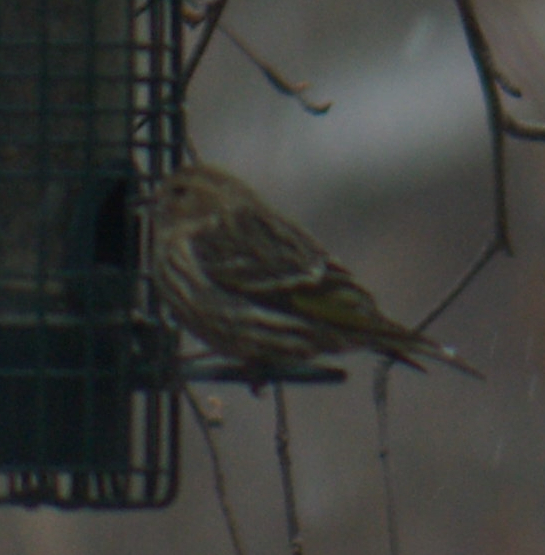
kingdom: Animalia
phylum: Chordata
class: Aves
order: Passeriformes
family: Fringillidae
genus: Spinus
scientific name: Spinus pinus
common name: Pine siskin
